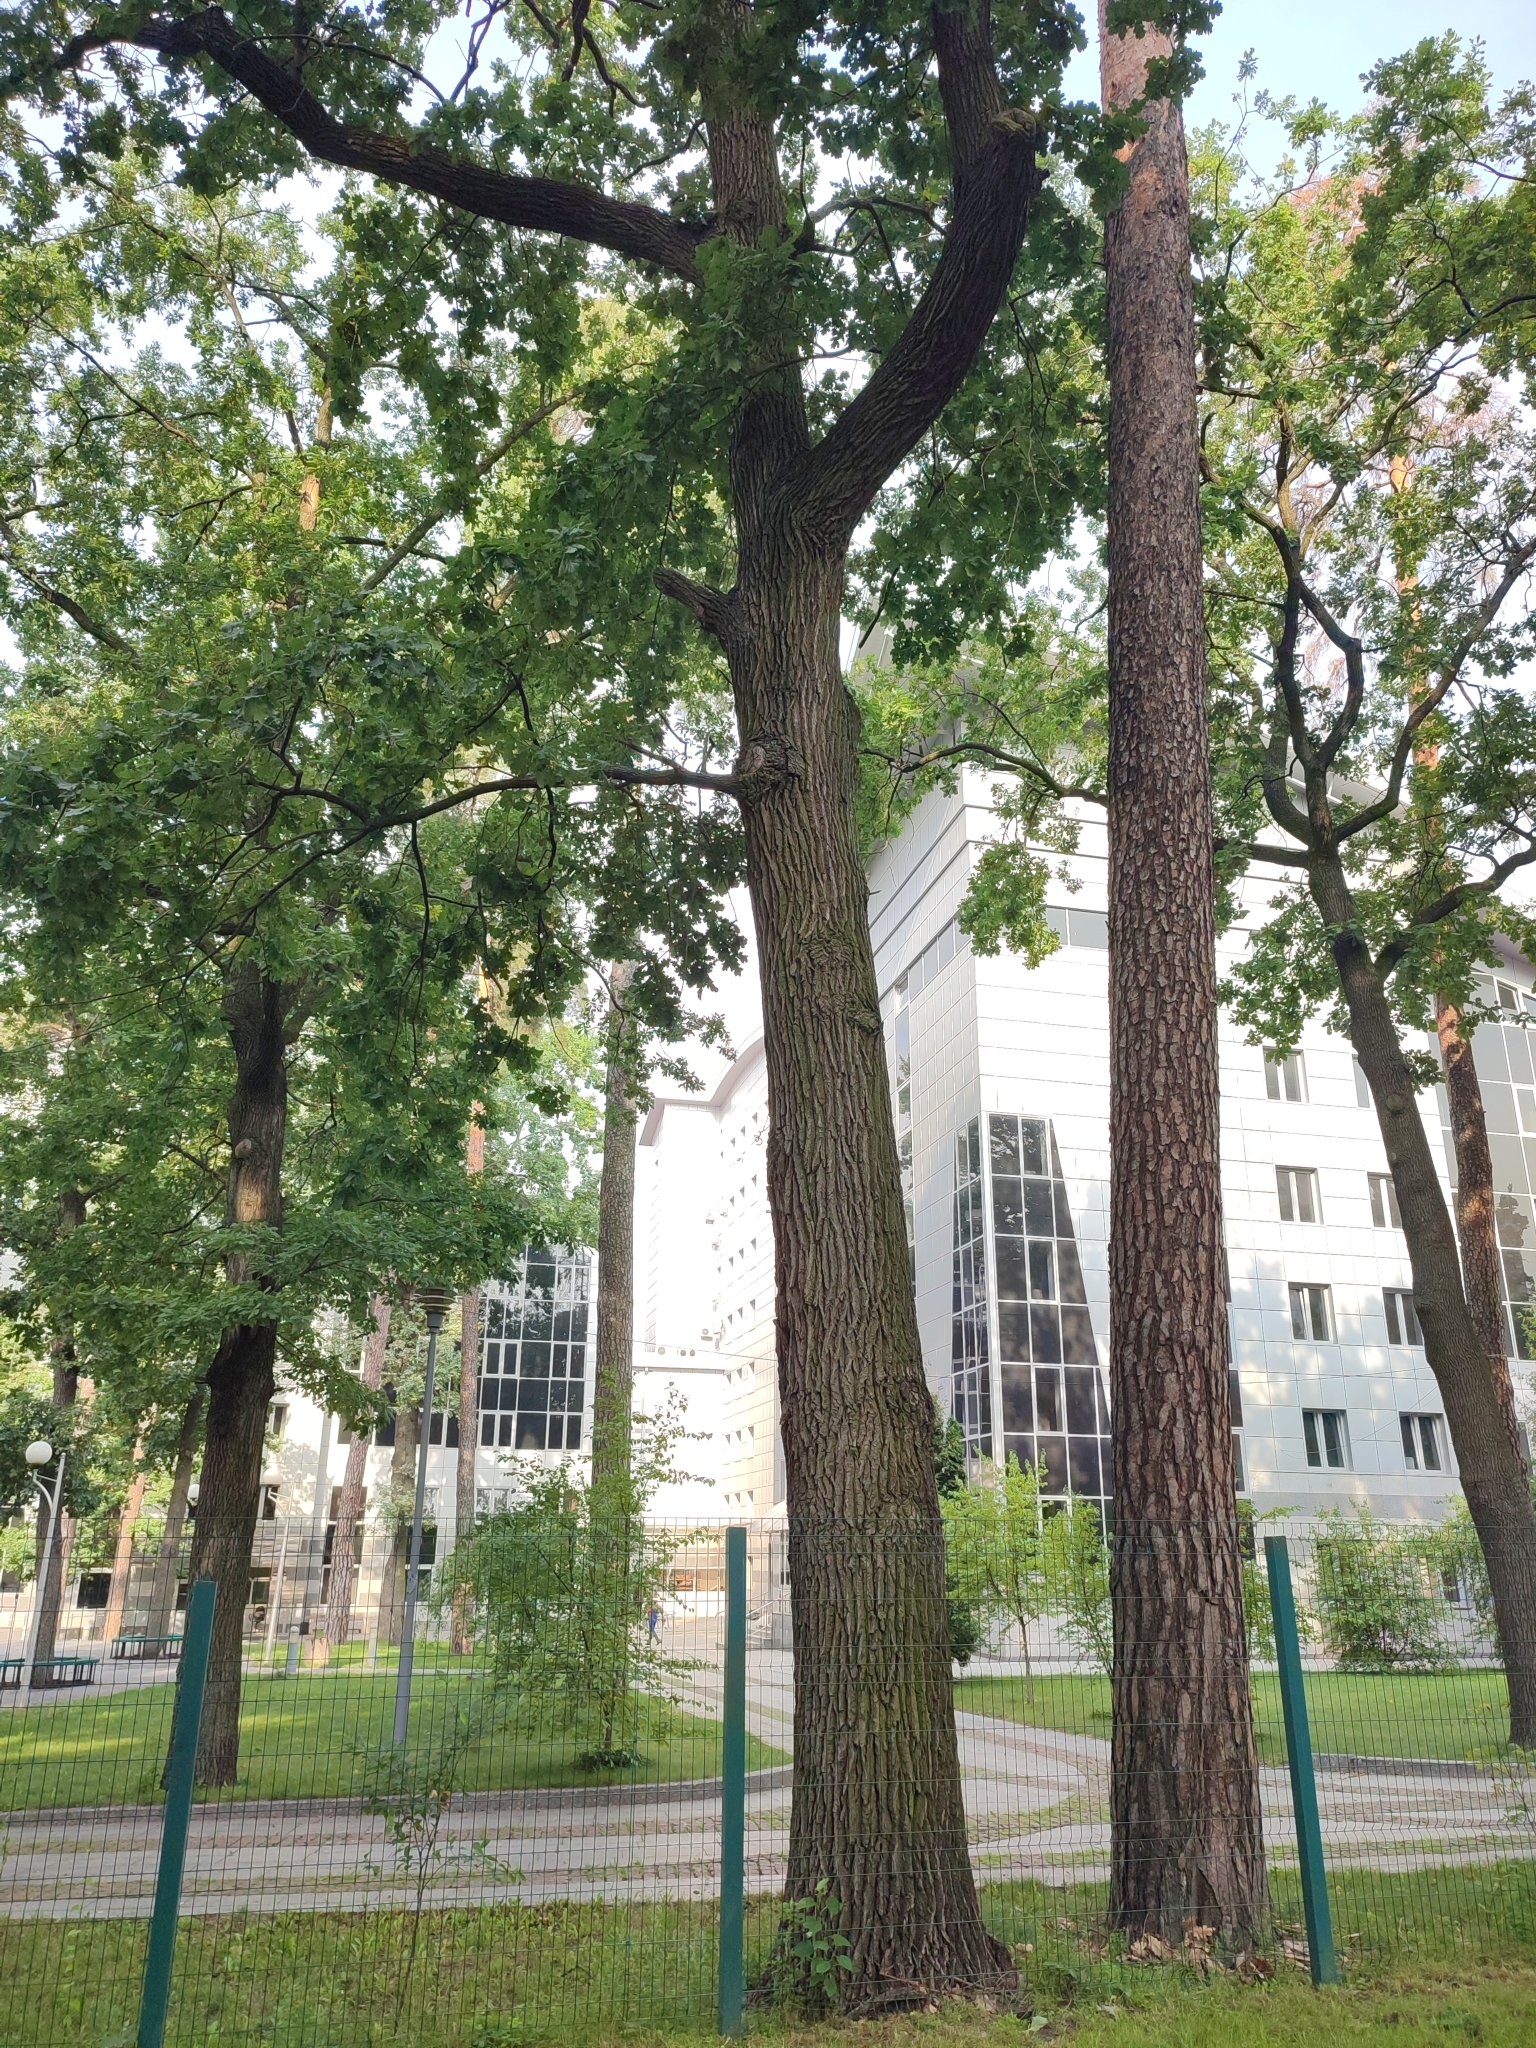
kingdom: Plantae
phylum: Tracheophyta
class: Magnoliopsida
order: Fagales
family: Fagaceae
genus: Quercus
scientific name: Quercus robur
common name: Pedunculate oak
